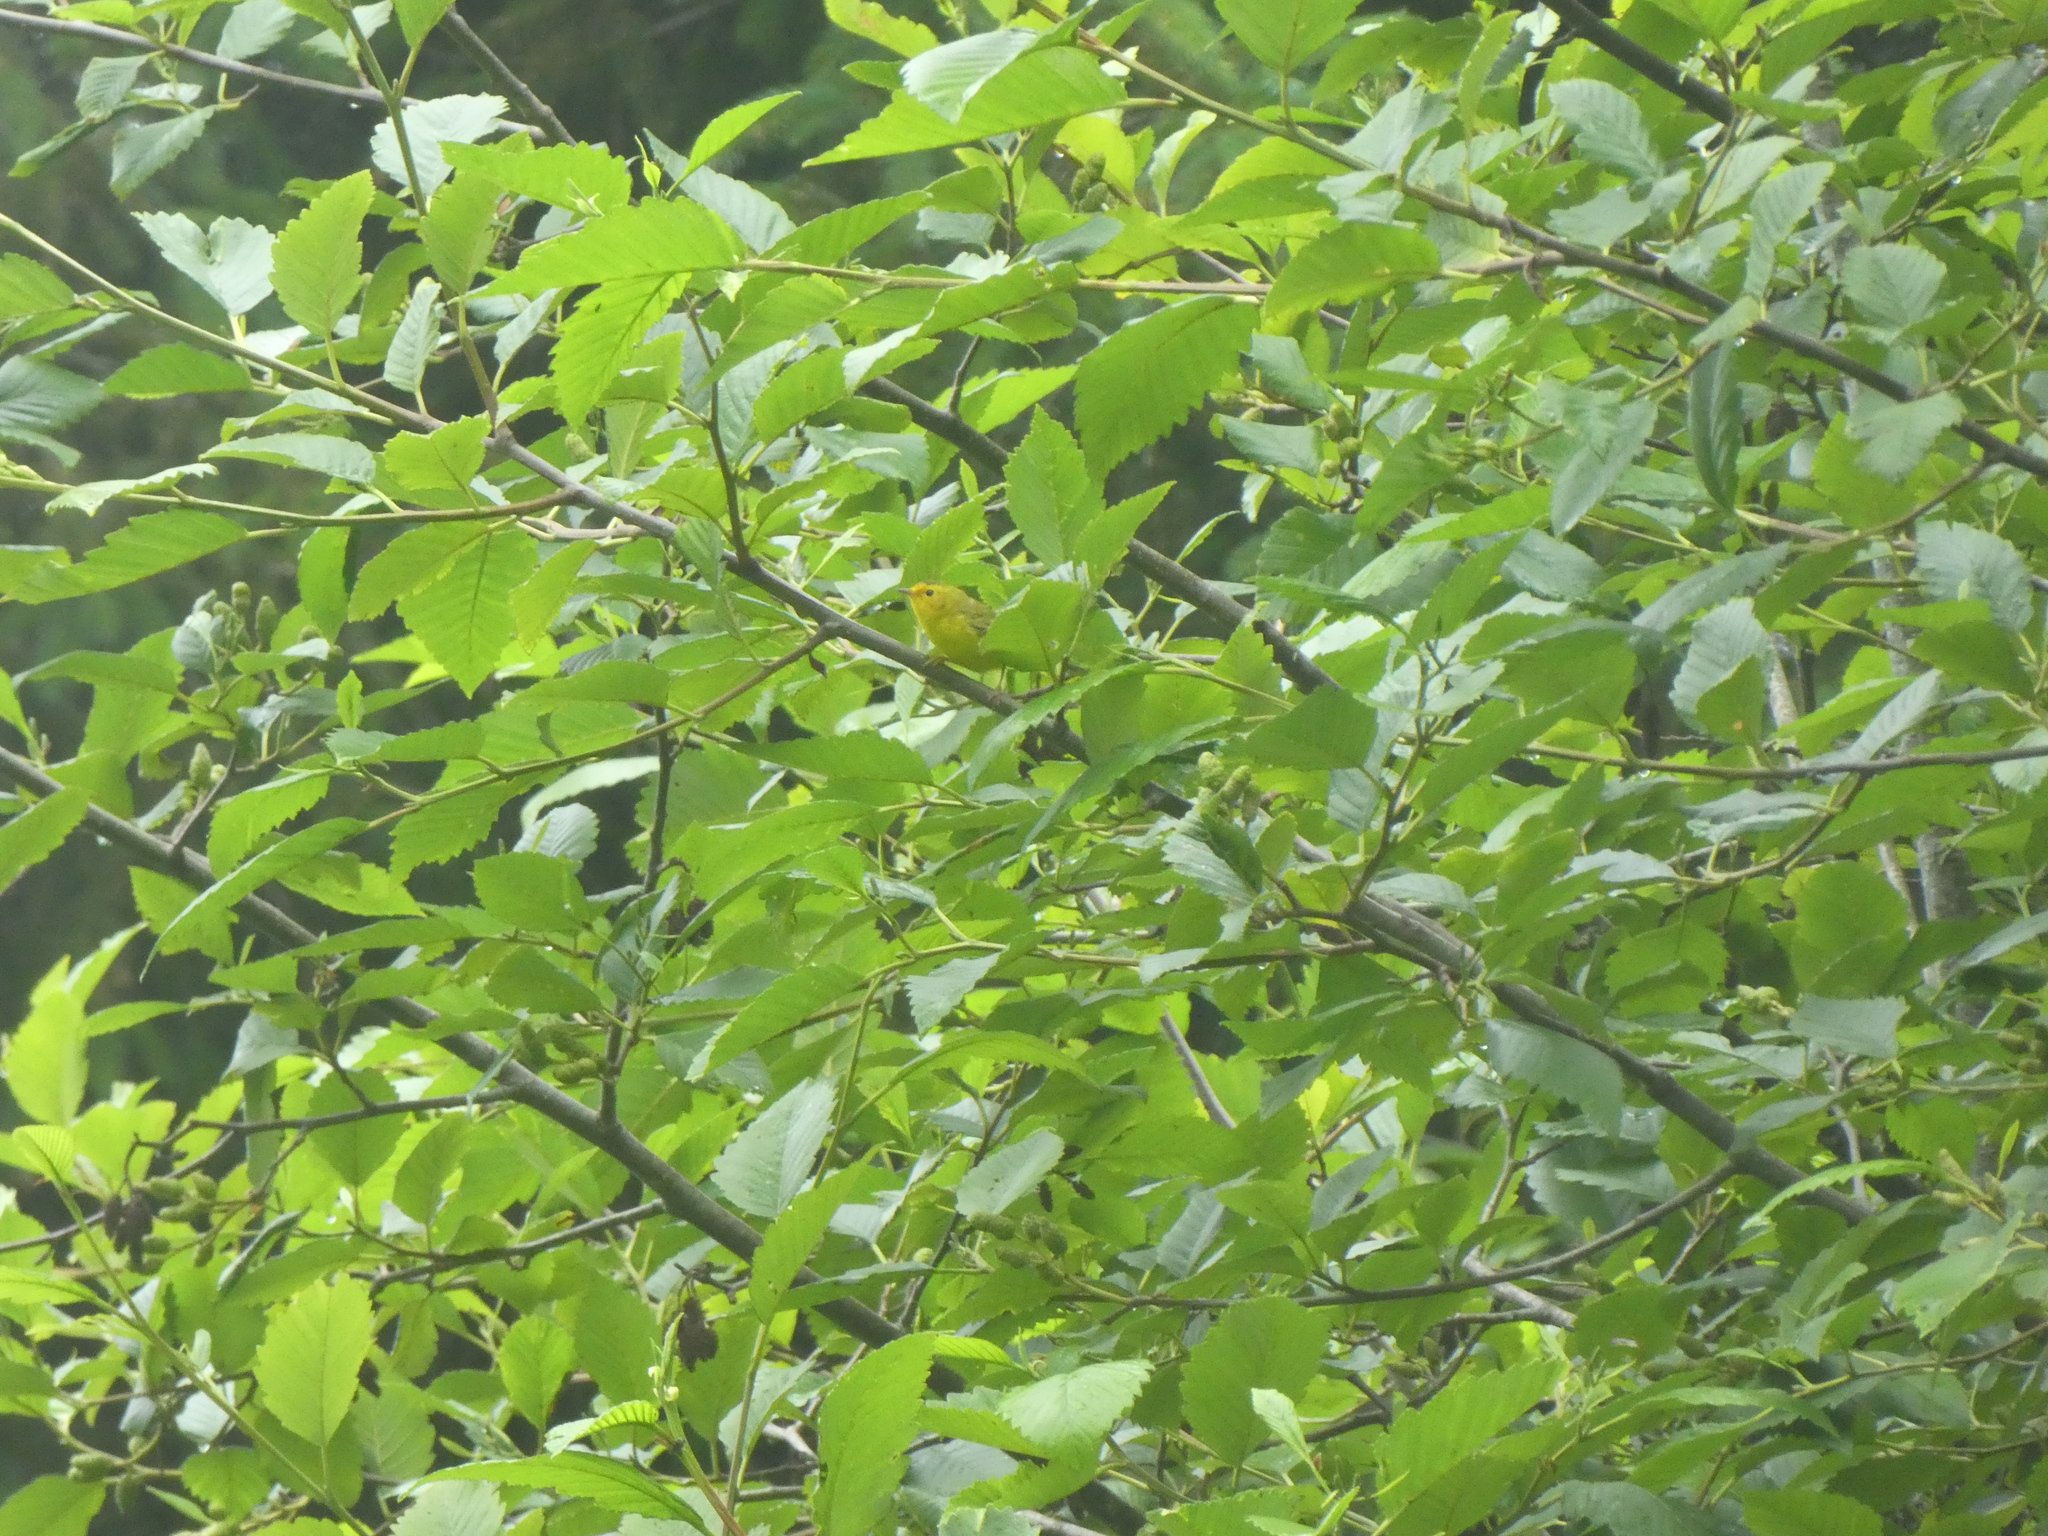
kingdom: Animalia
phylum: Chordata
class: Aves
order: Passeriformes
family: Parulidae
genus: Cardellina
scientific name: Cardellina pusilla
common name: Wilson's warbler
